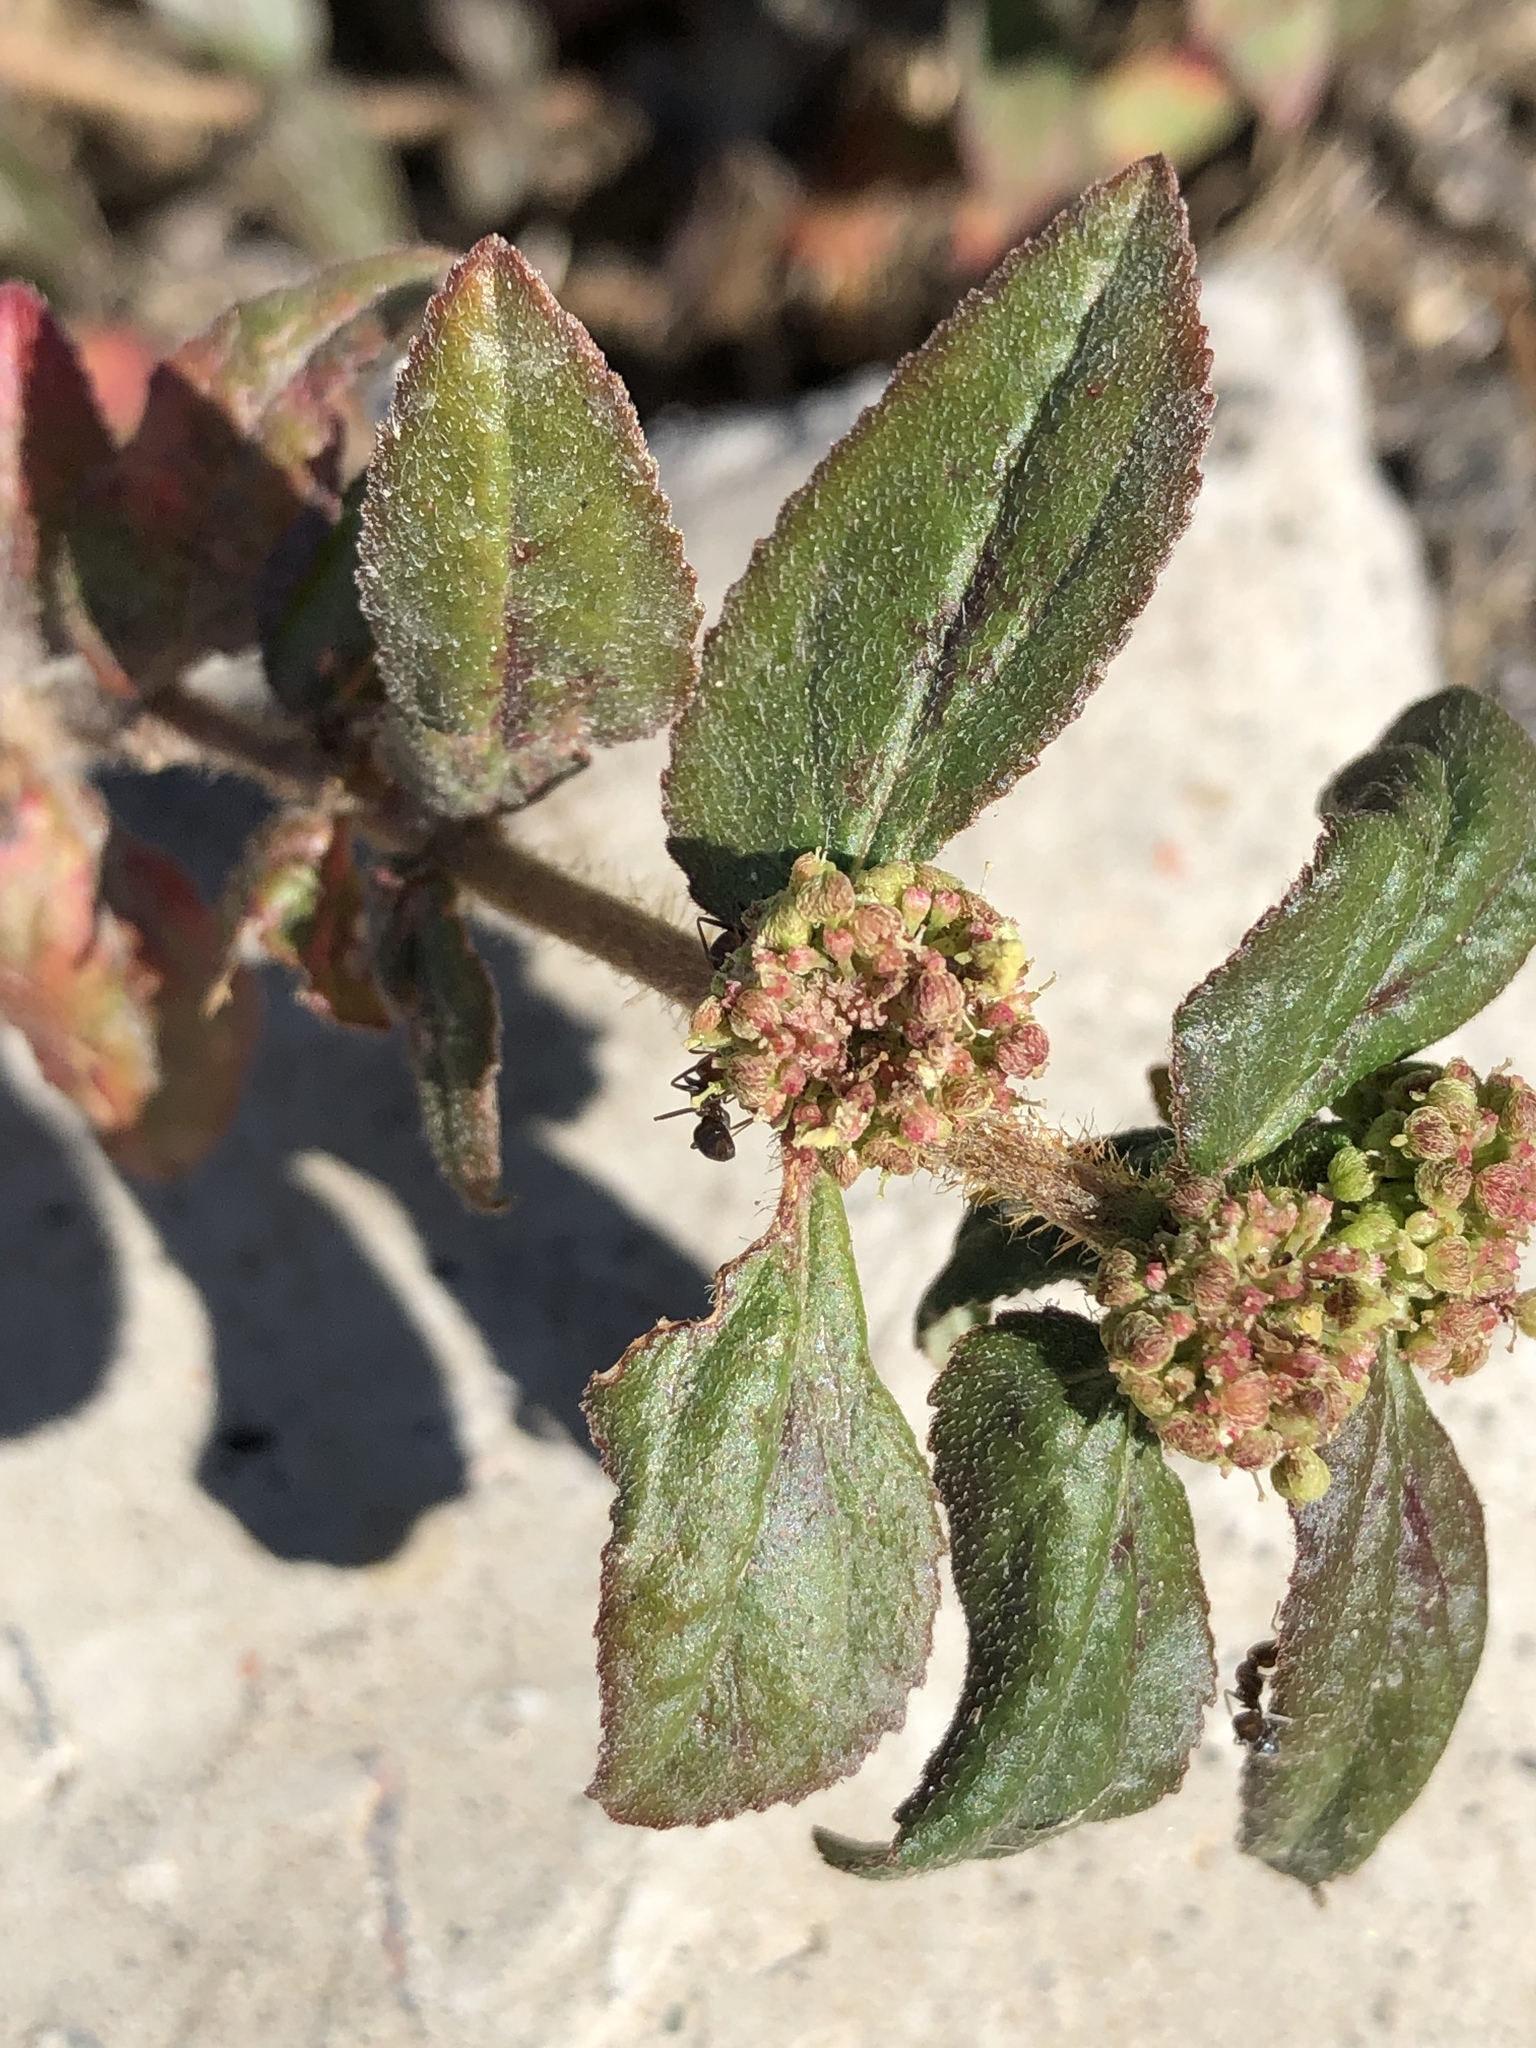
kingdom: Plantae
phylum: Tracheophyta
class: Magnoliopsida
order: Malpighiales
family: Euphorbiaceae
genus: Euphorbia
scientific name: Euphorbia hirta
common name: Pillpod sandmat
